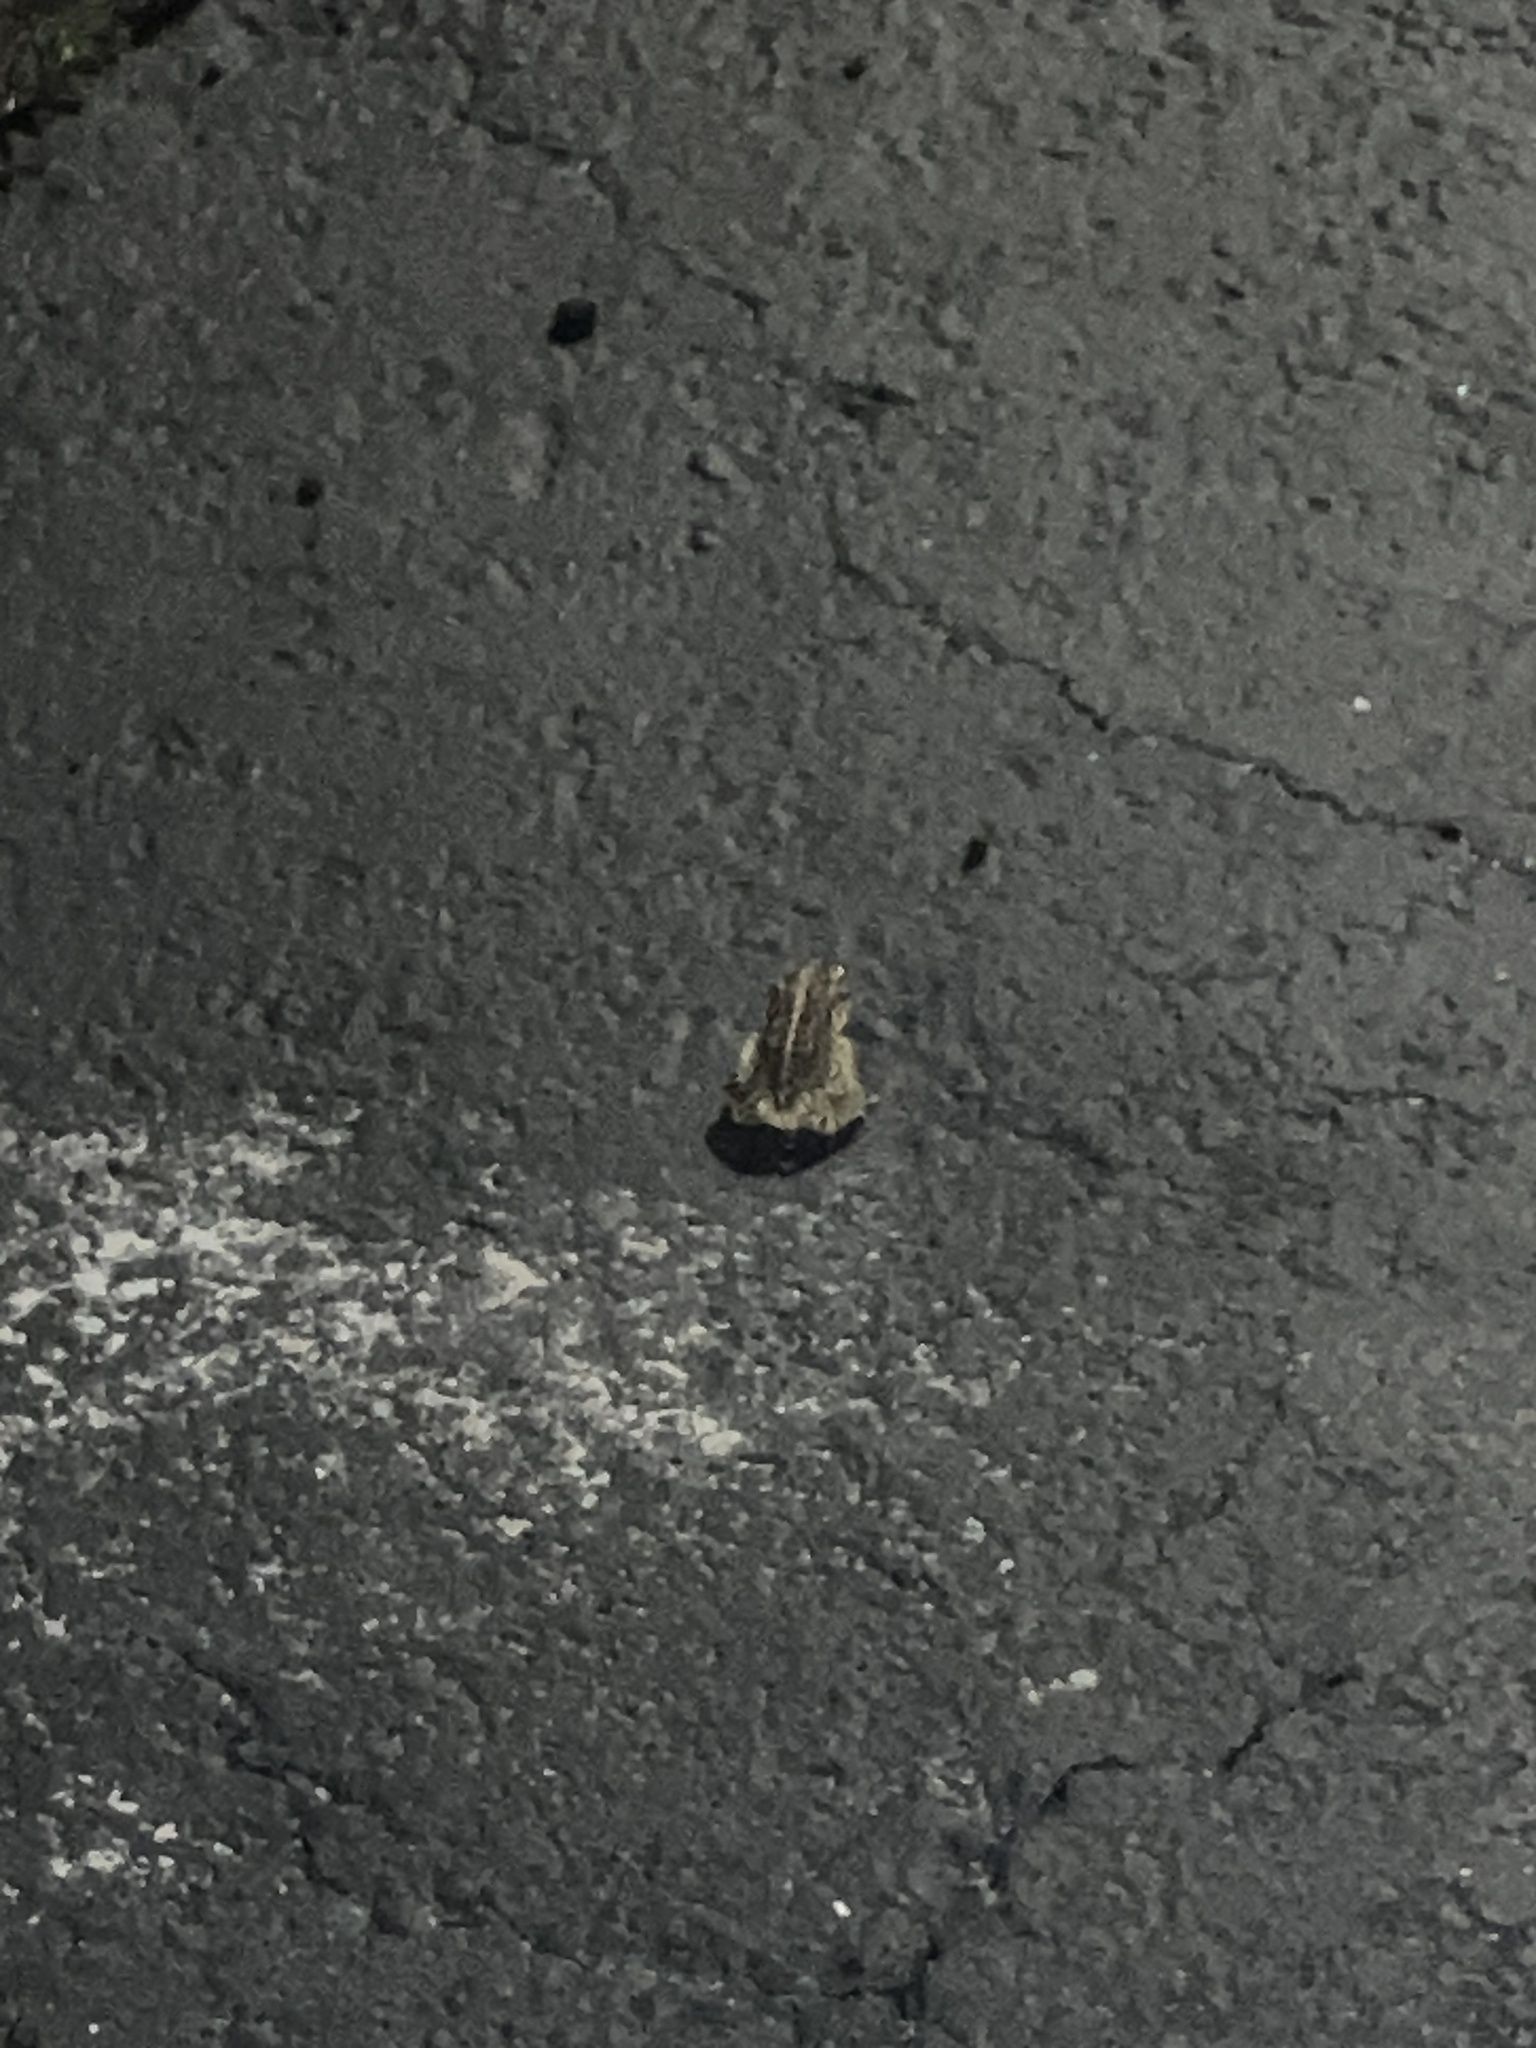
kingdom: Animalia
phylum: Chordata
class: Amphibia
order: Anura
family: Bufonidae
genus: Anaxyrus
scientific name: Anaxyrus terrestris
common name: Southern toad
